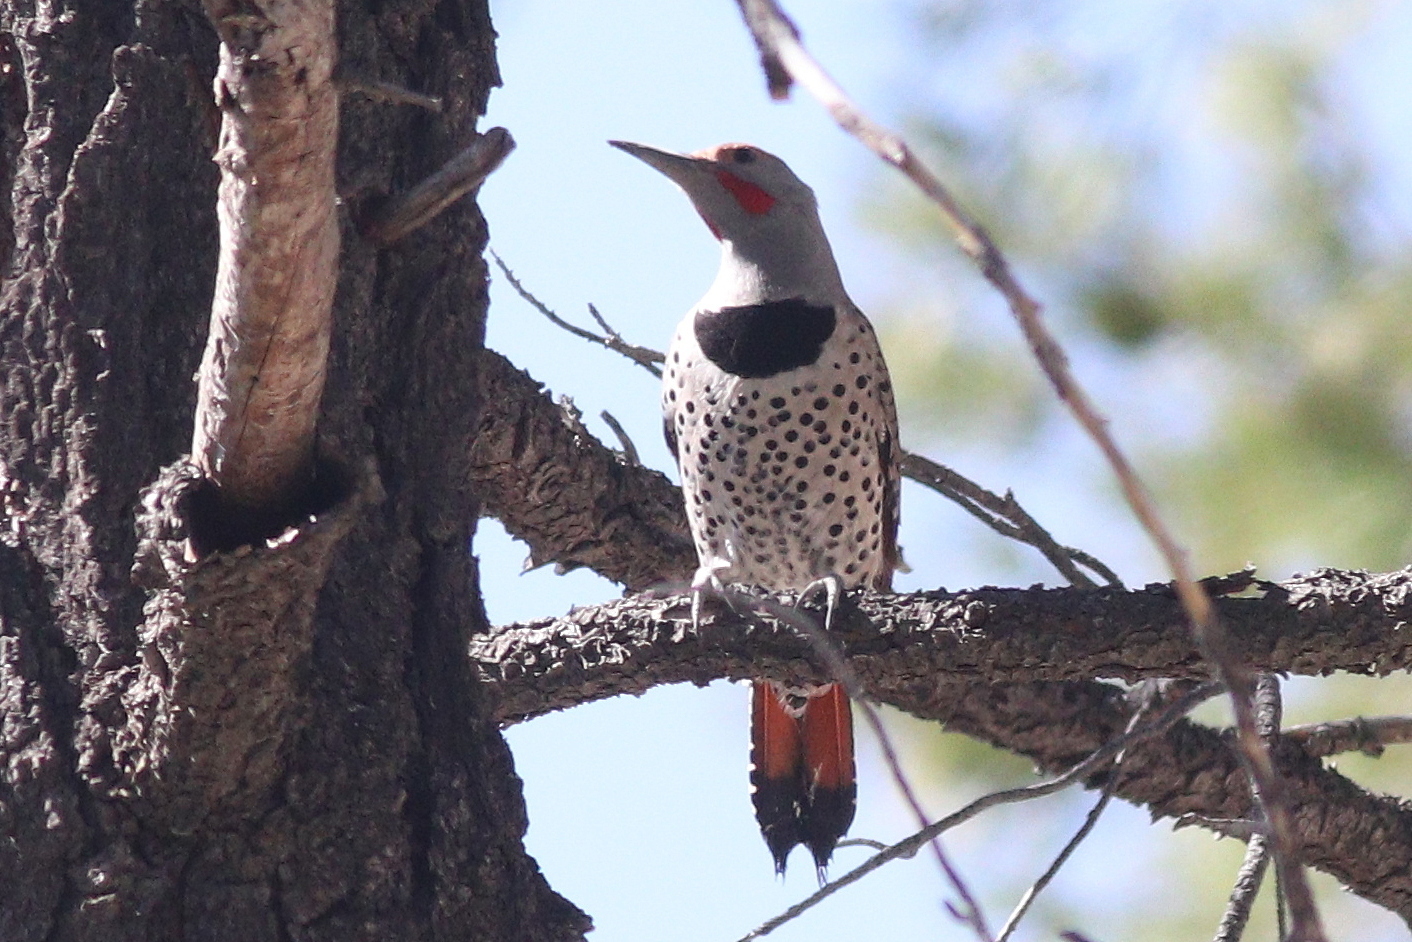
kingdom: Animalia
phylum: Chordata
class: Aves
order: Piciformes
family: Picidae
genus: Colaptes
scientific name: Colaptes auratus
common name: Northern flicker
